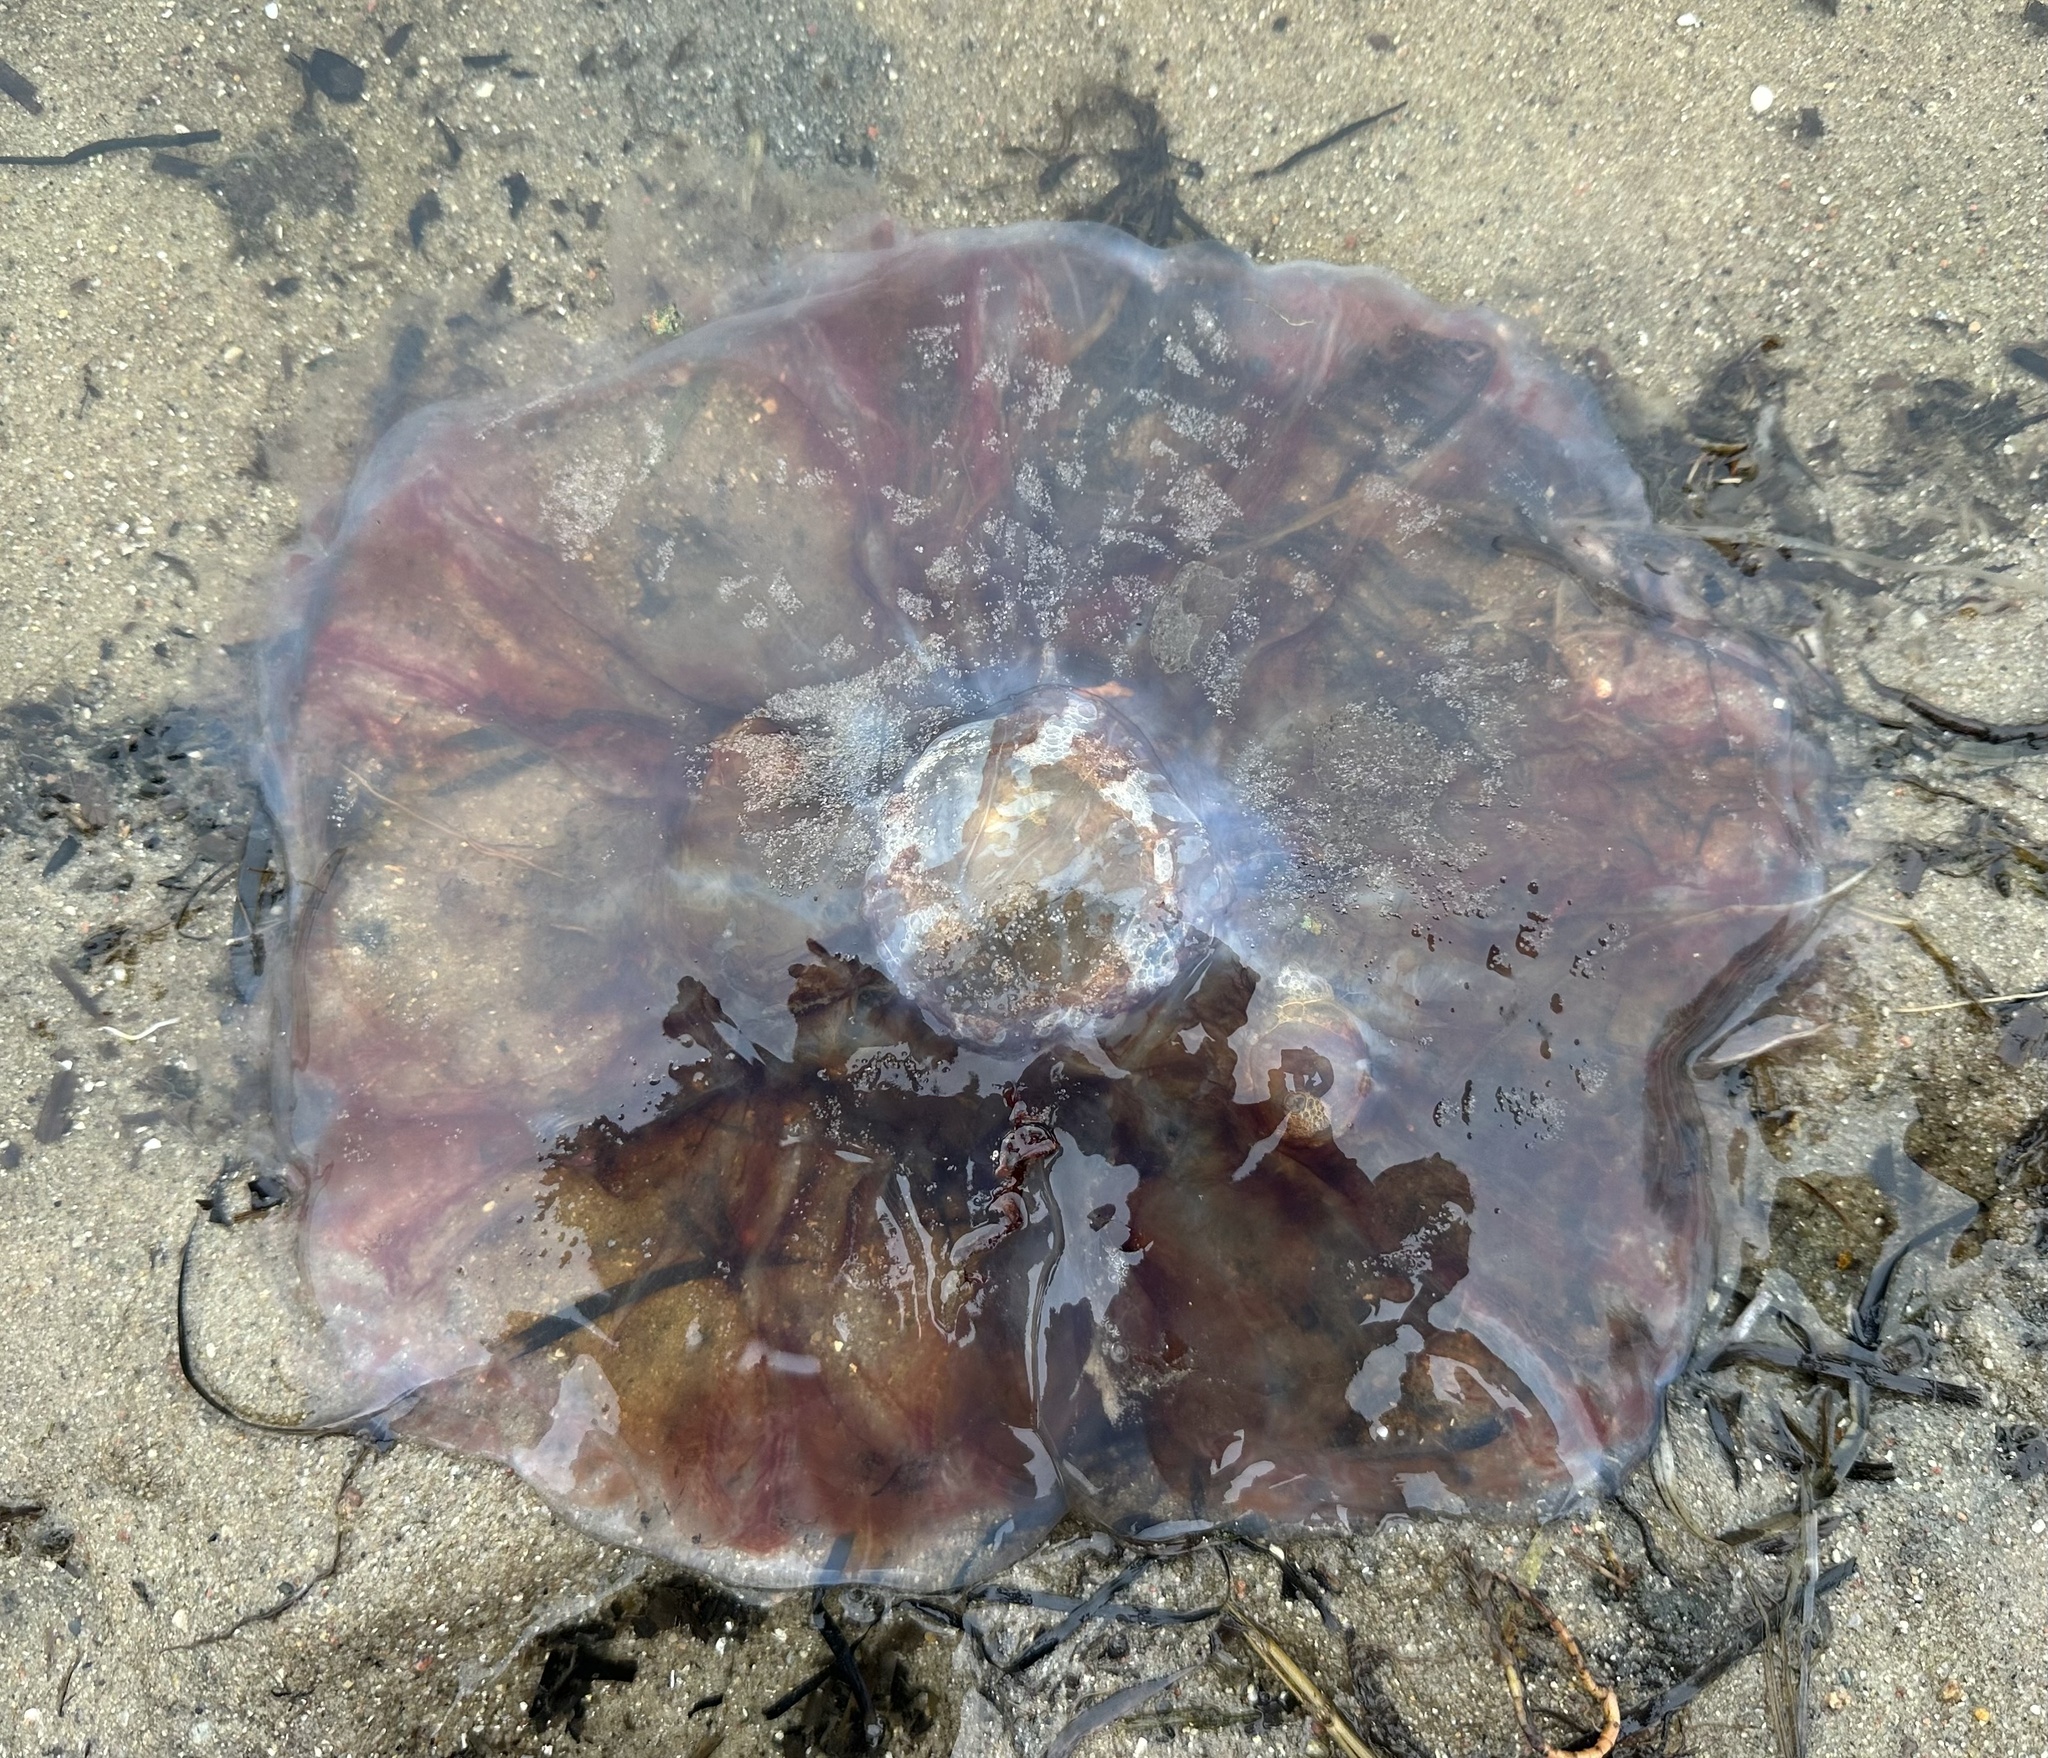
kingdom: Animalia
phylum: Cnidaria
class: Scyphozoa
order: Semaeostomeae
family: Cyaneidae
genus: Cyanea
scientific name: Cyanea capillata
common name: Lion's mane jellyfish
